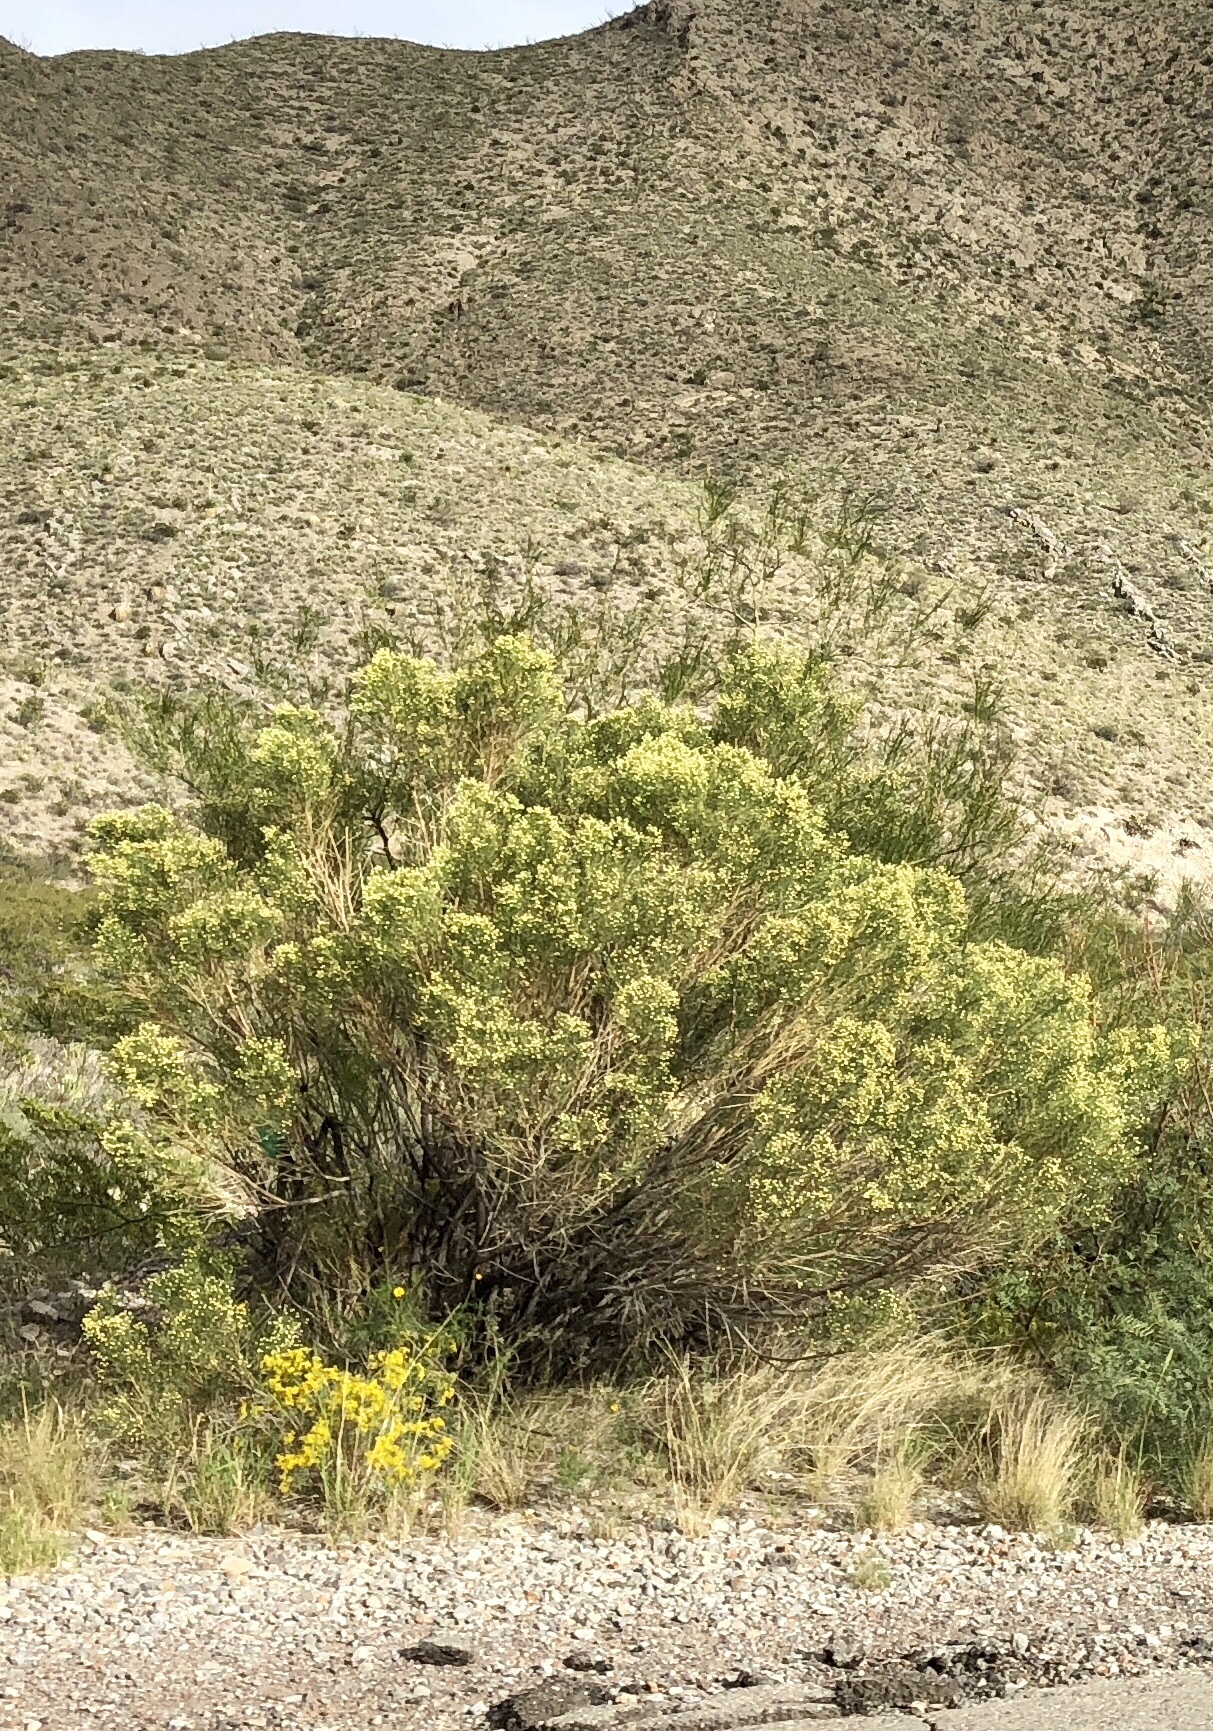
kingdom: Plantae
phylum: Tracheophyta
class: Magnoliopsida
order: Asterales
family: Asteraceae
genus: Baccharis
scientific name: Baccharis sarothroides
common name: Desert-broom
